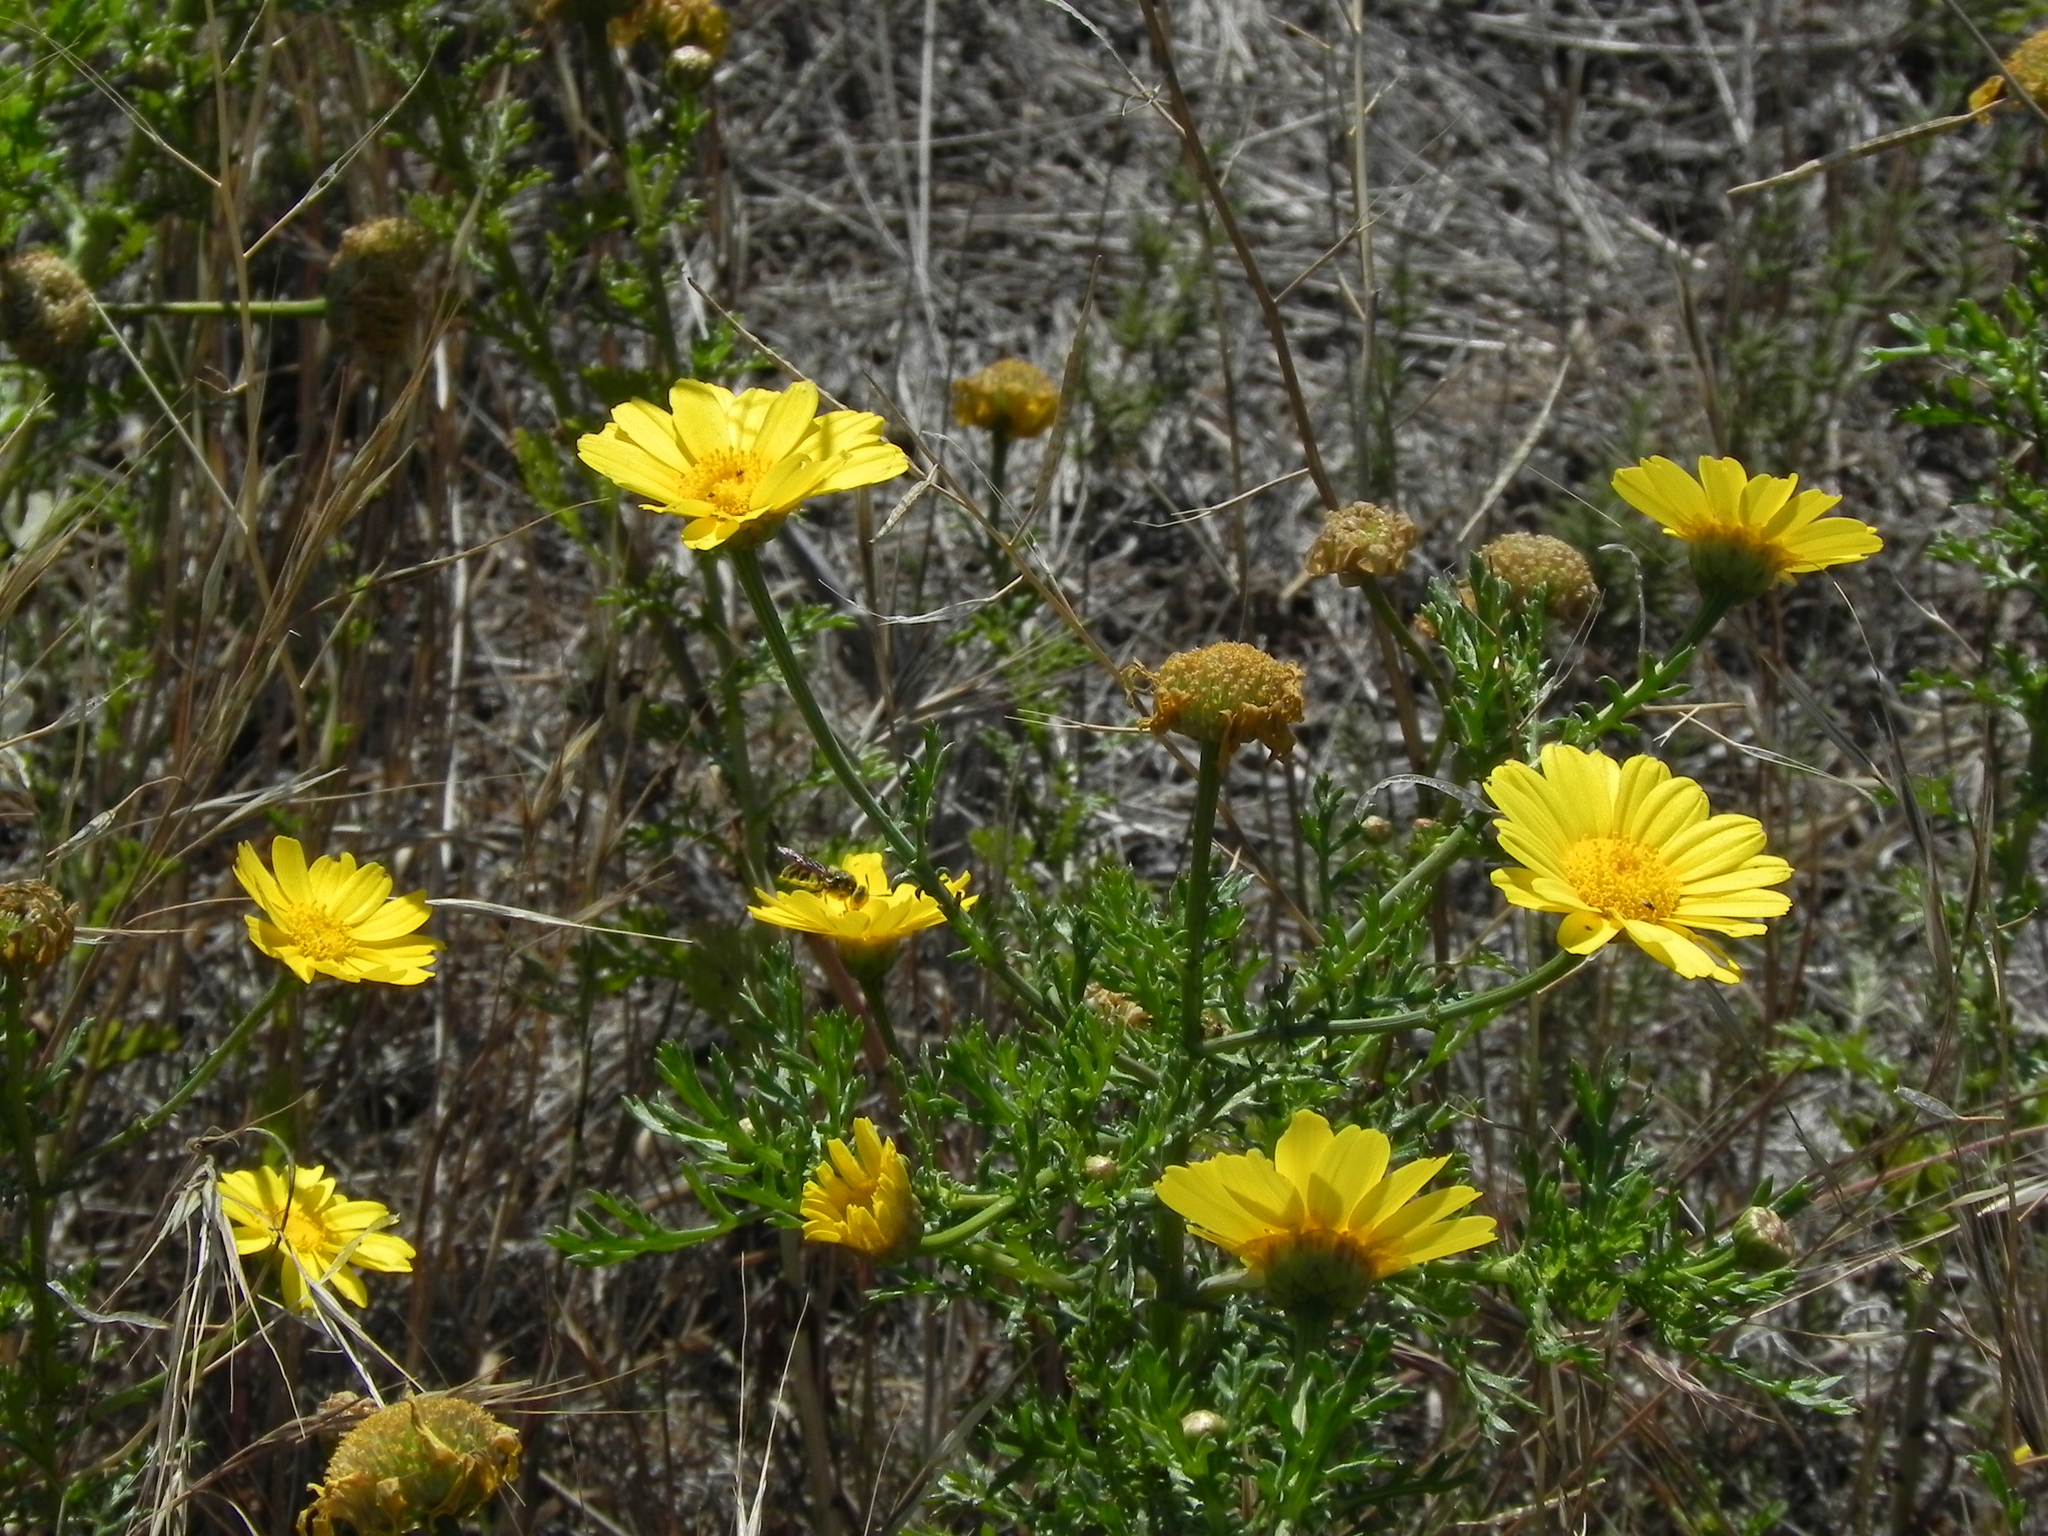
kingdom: Plantae
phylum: Tracheophyta
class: Magnoliopsida
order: Asterales
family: Asteraceae
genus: Glebionis
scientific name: Glebionis coronaria
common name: Crowndaisy
